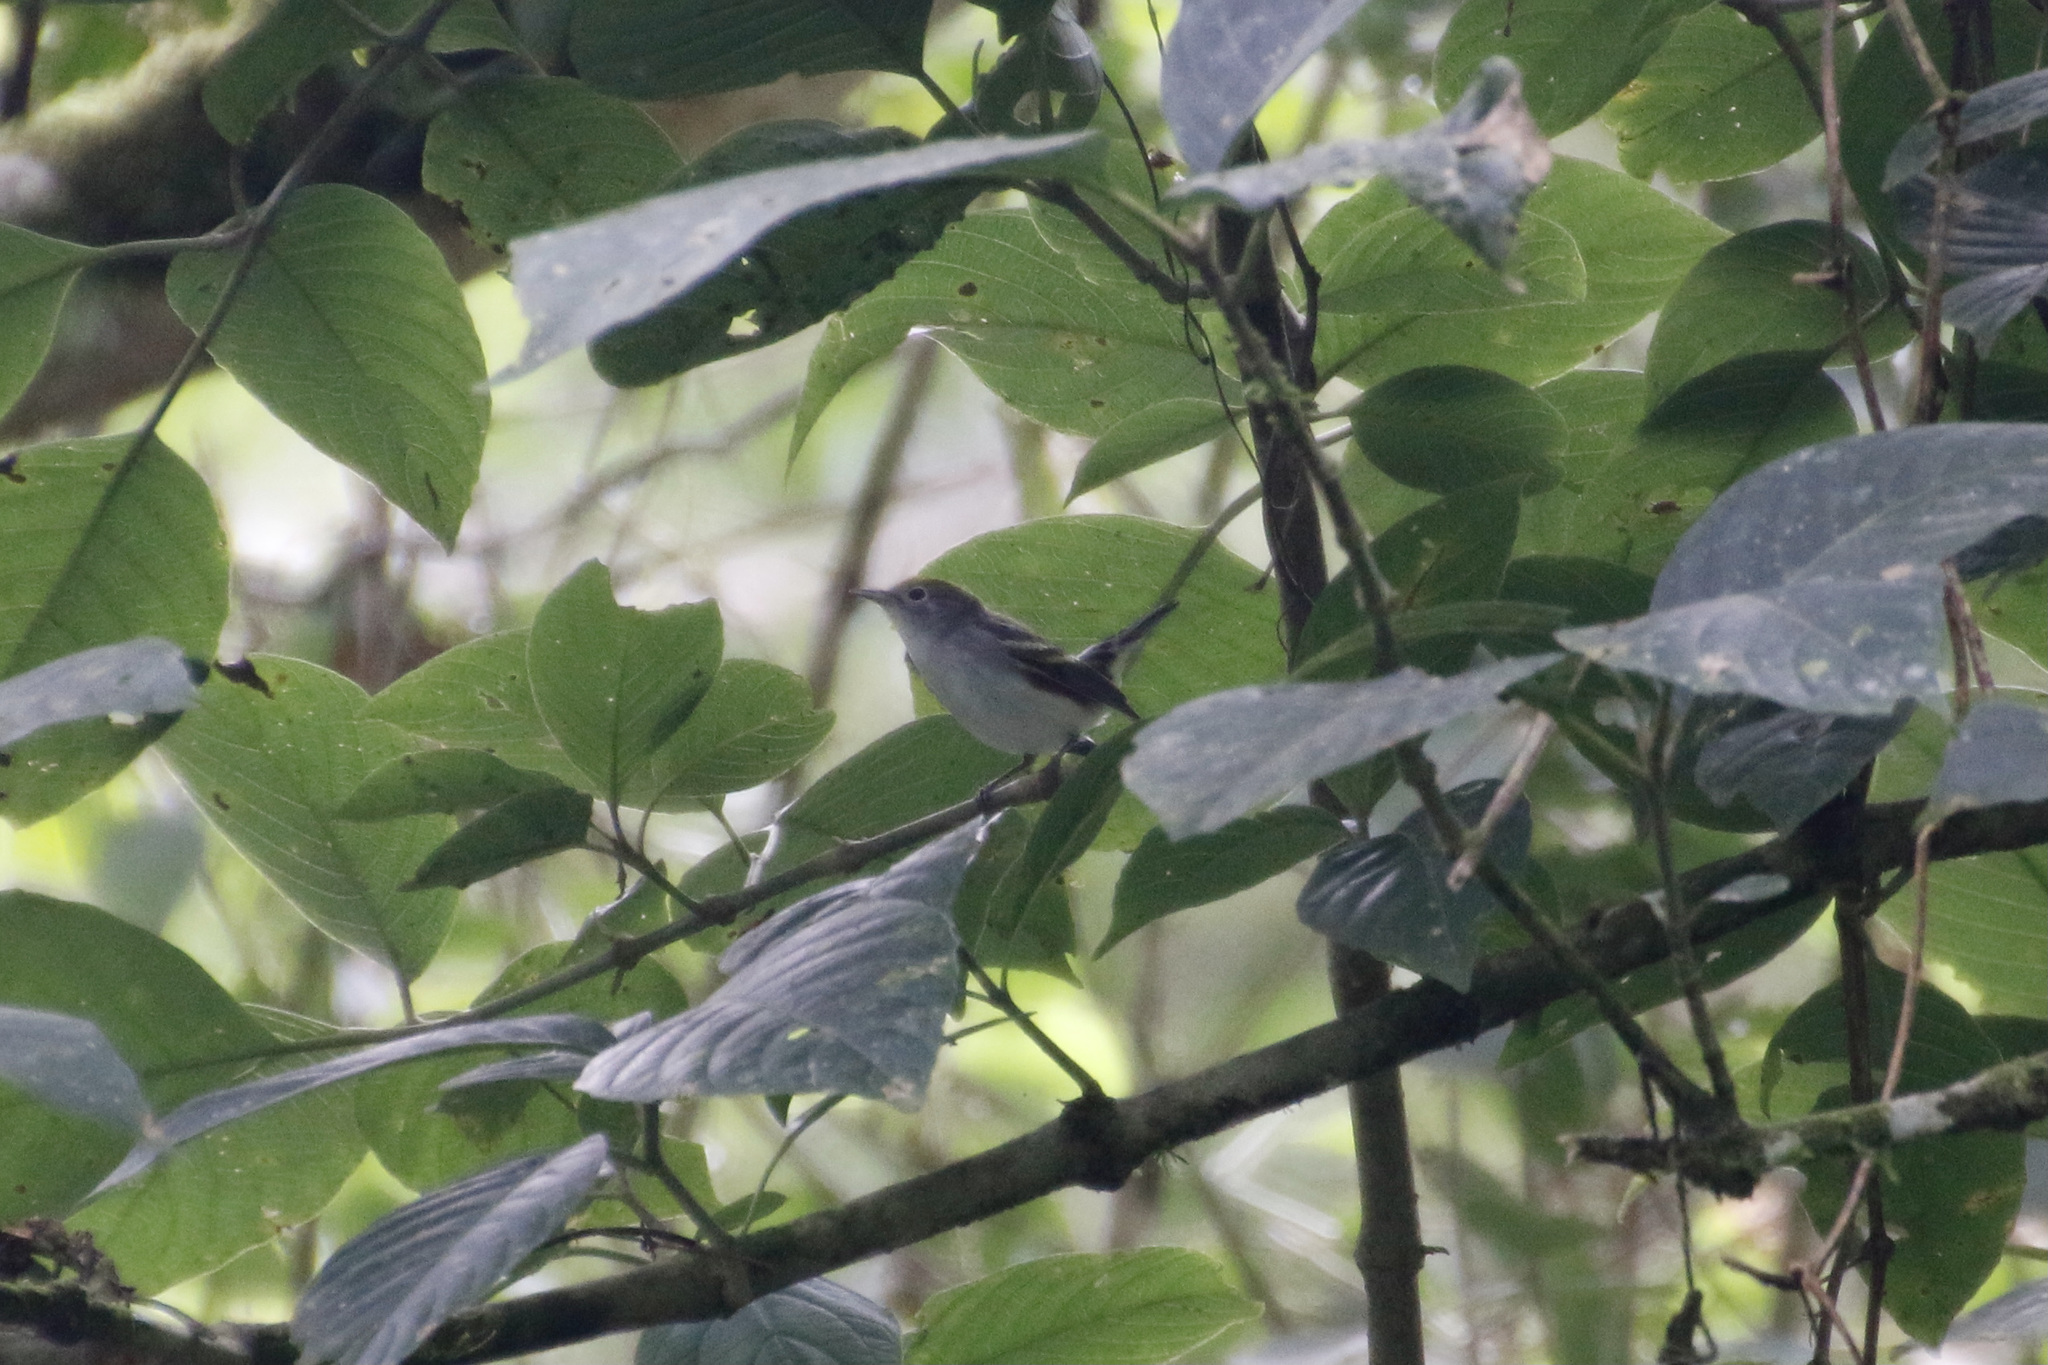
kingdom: Animalia
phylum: Chordata
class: Aves
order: Passeriformes
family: Parulidae
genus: Setophaga
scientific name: Setophaga pensylvanica
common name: Chestnut-sided warbler
